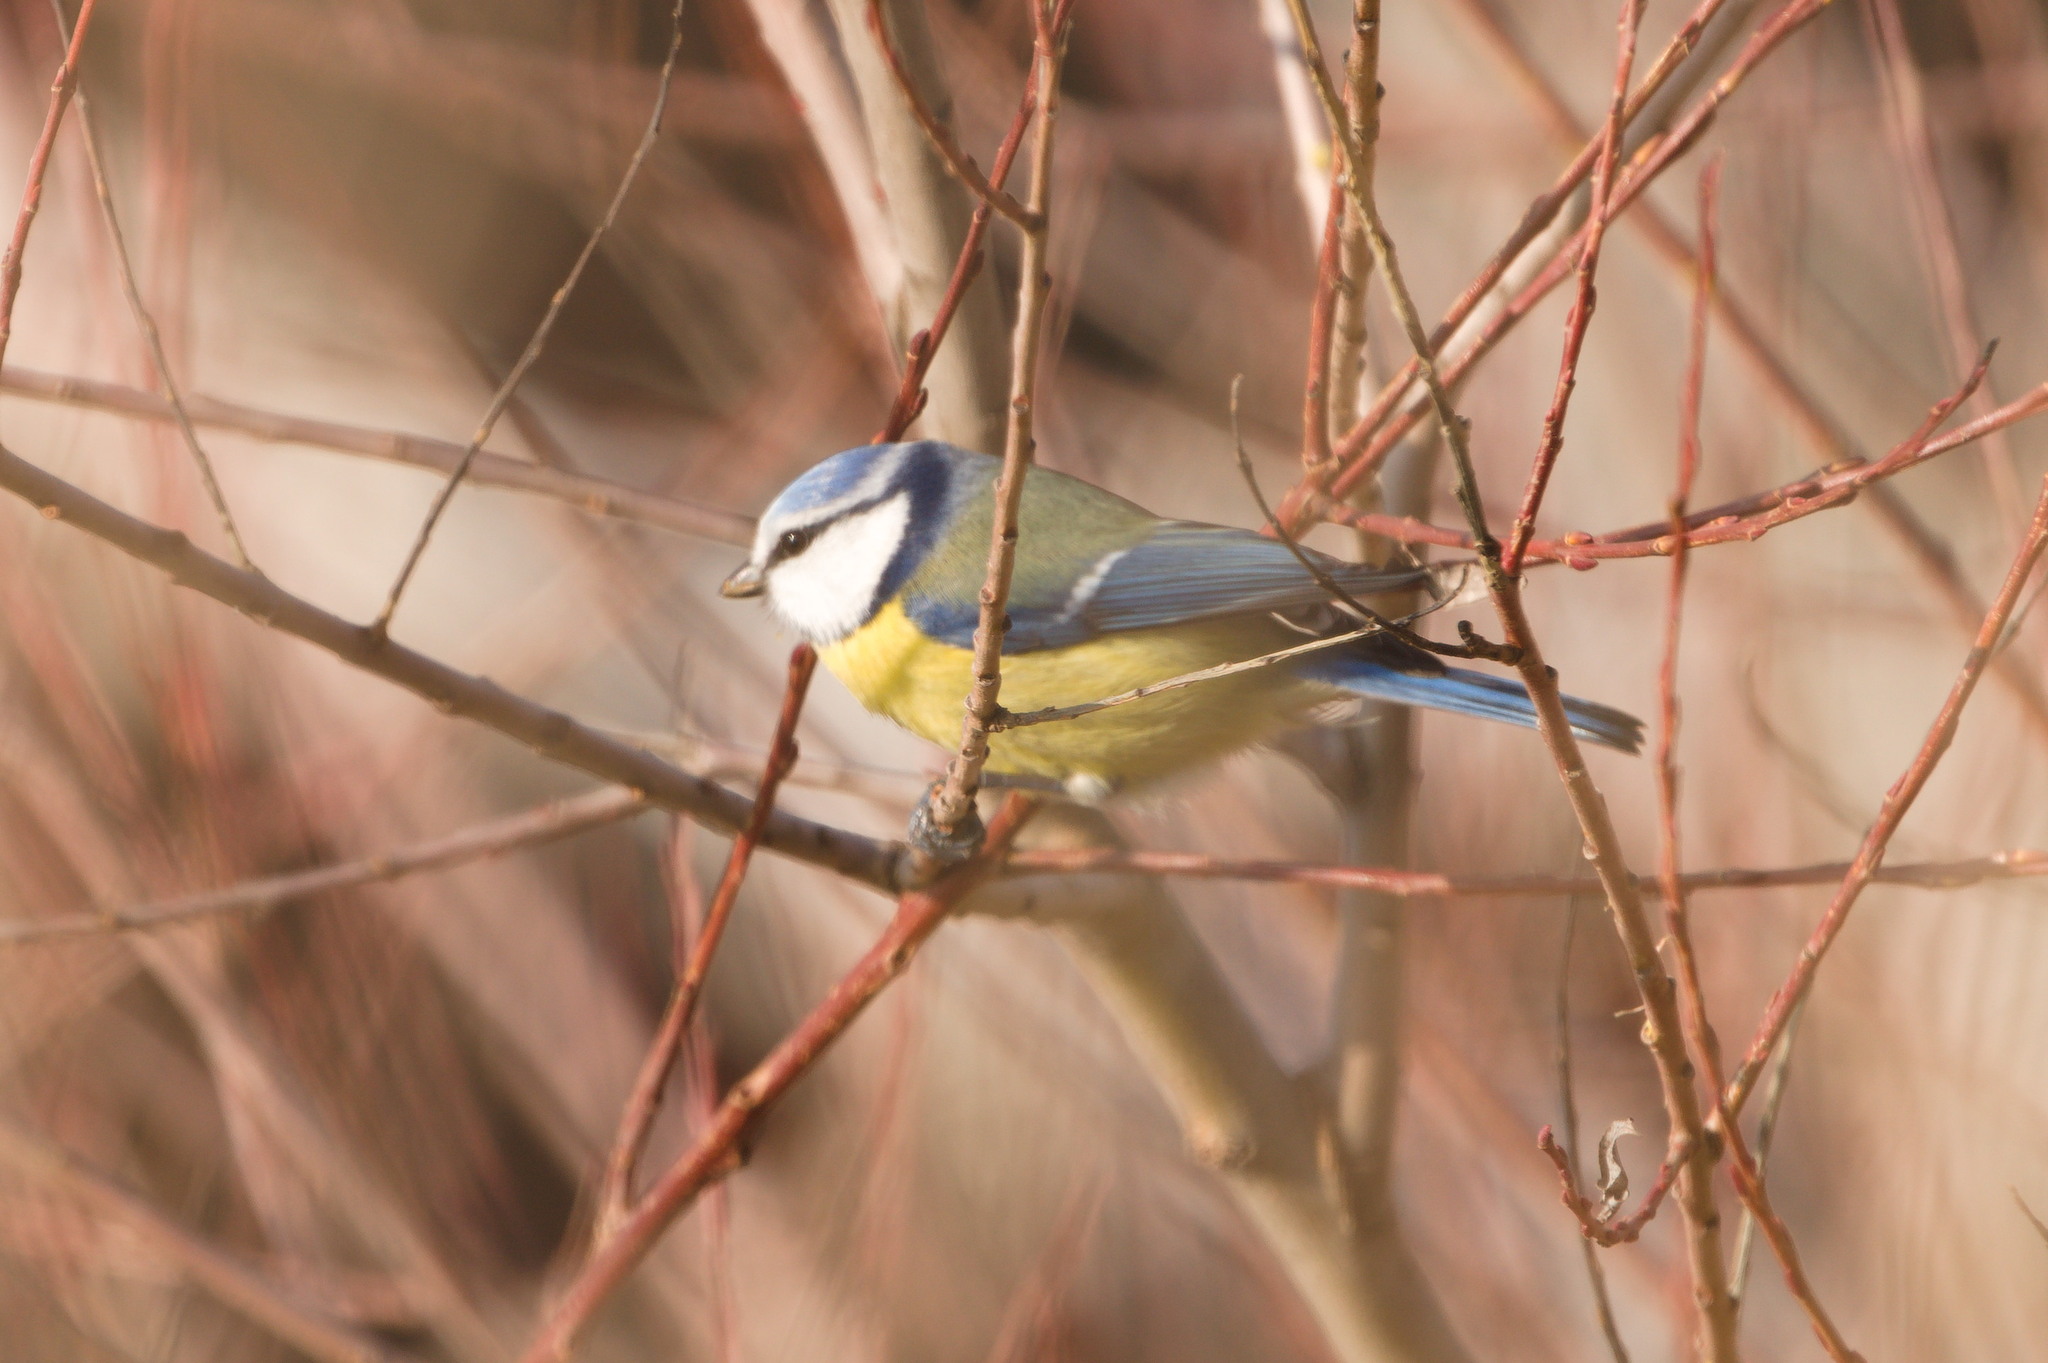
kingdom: Animalia
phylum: Chordata
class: Aves
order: Passeriformes
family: Paridae
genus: Cyanistes
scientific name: Cyanistes caeruleus
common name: Eurasian blue tit
